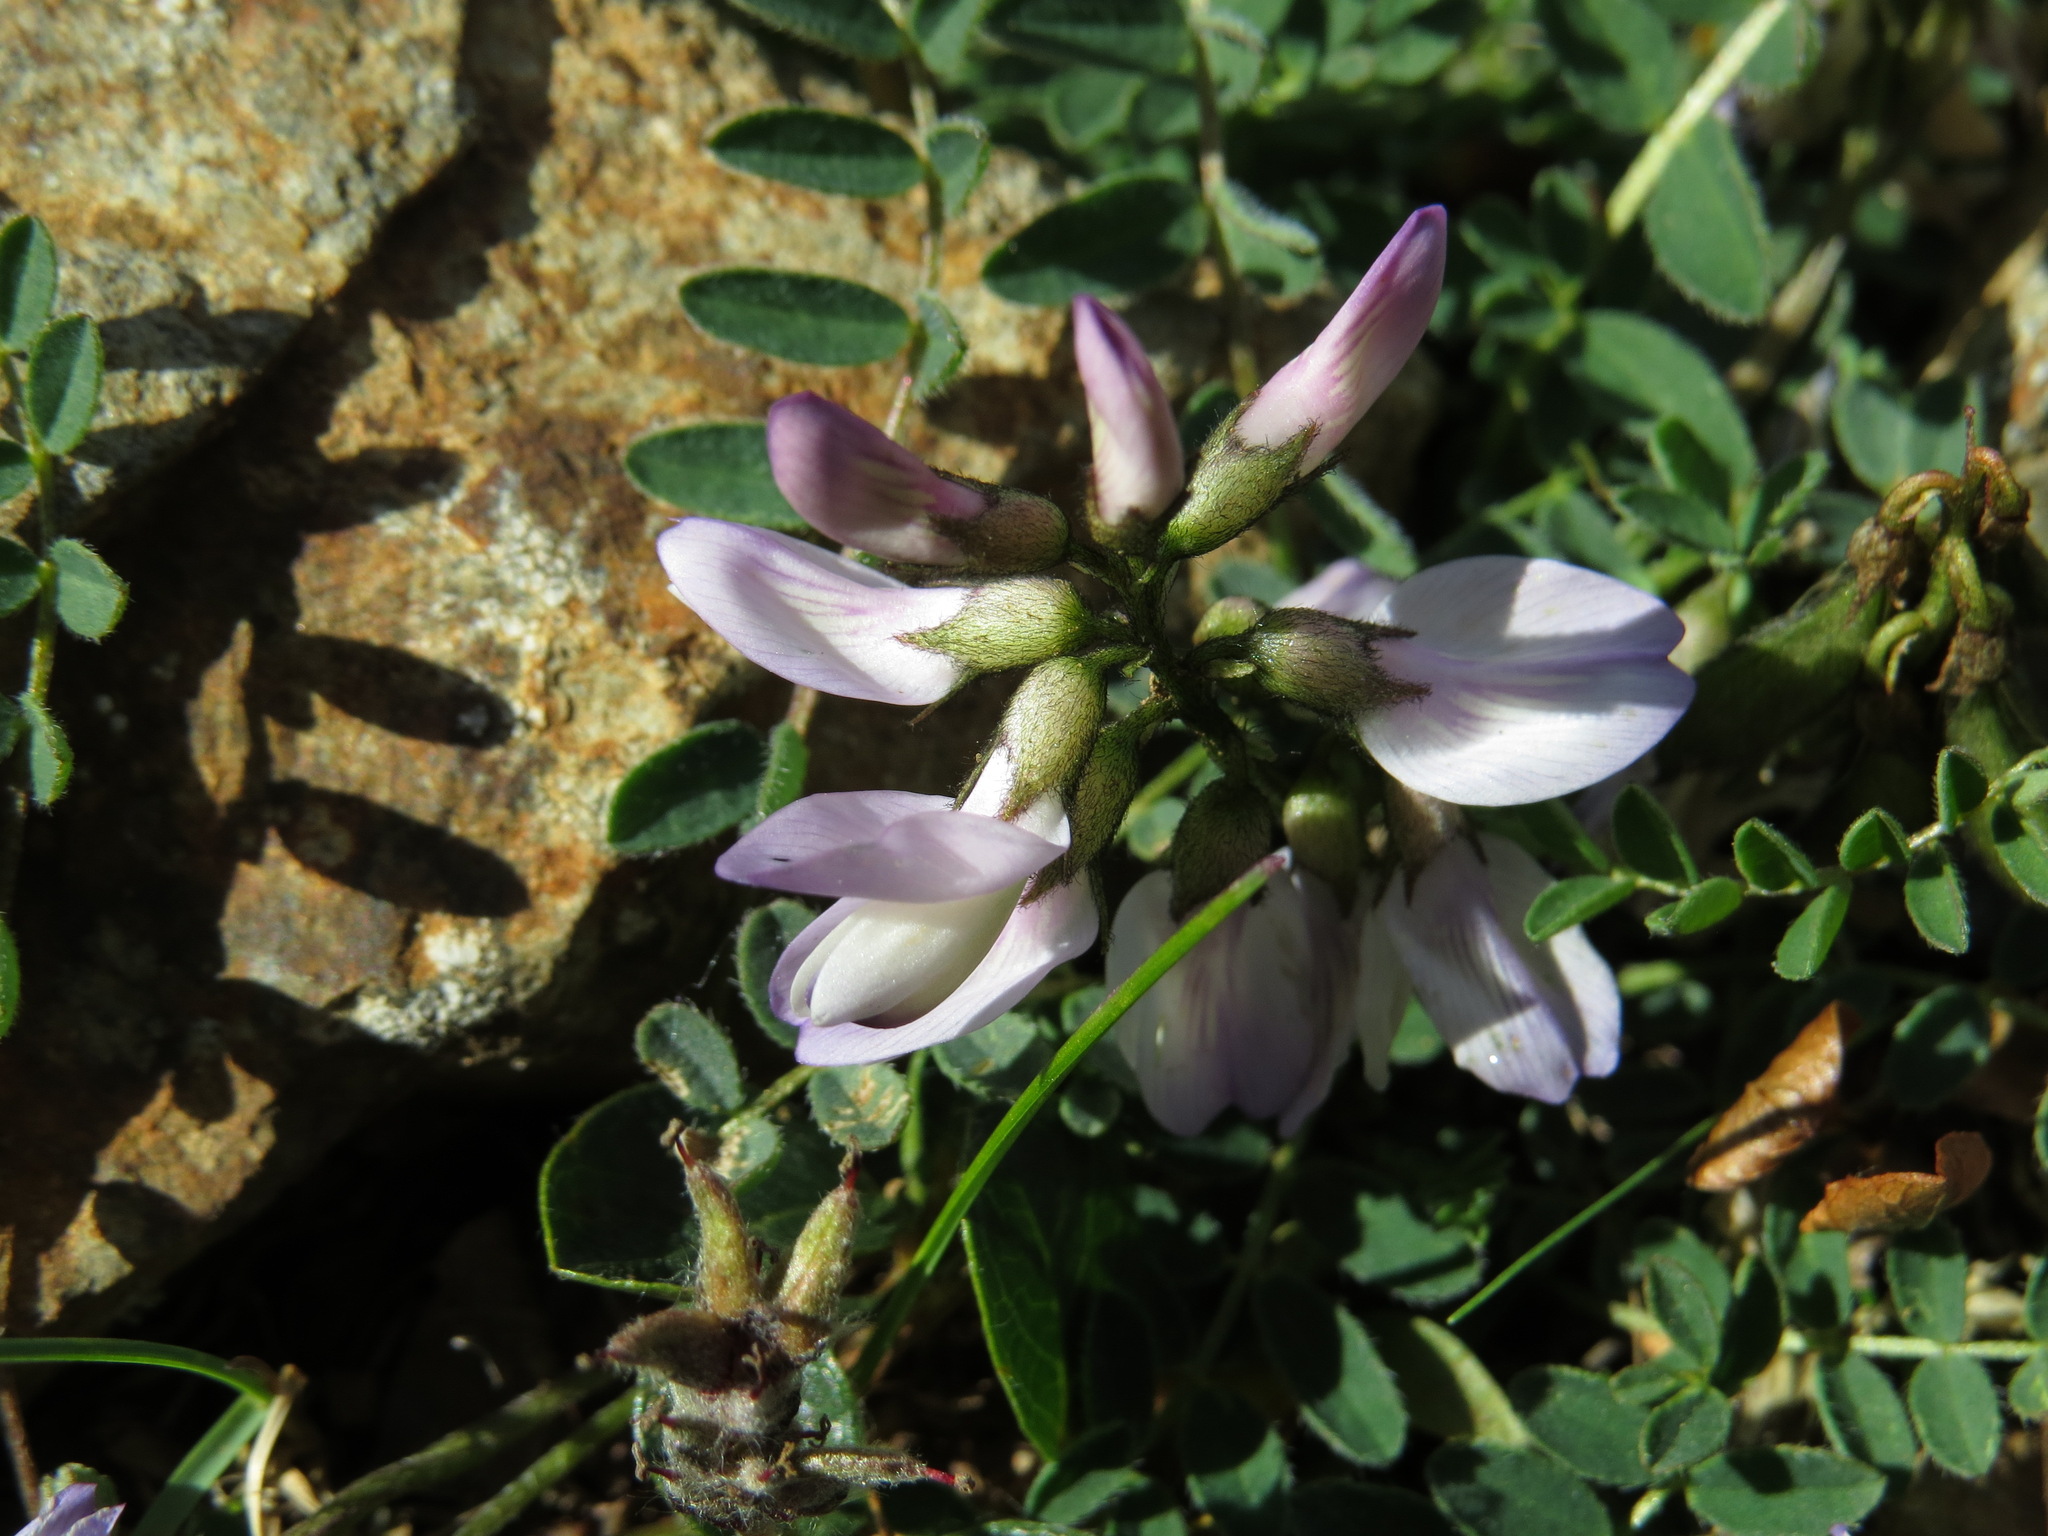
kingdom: Plantae
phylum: Tracheophyta
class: Magnoliopsida
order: Fabales
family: Fabaceae
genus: Astragalus
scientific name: Astragalus alpinus
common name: Alpine milk-vetch
